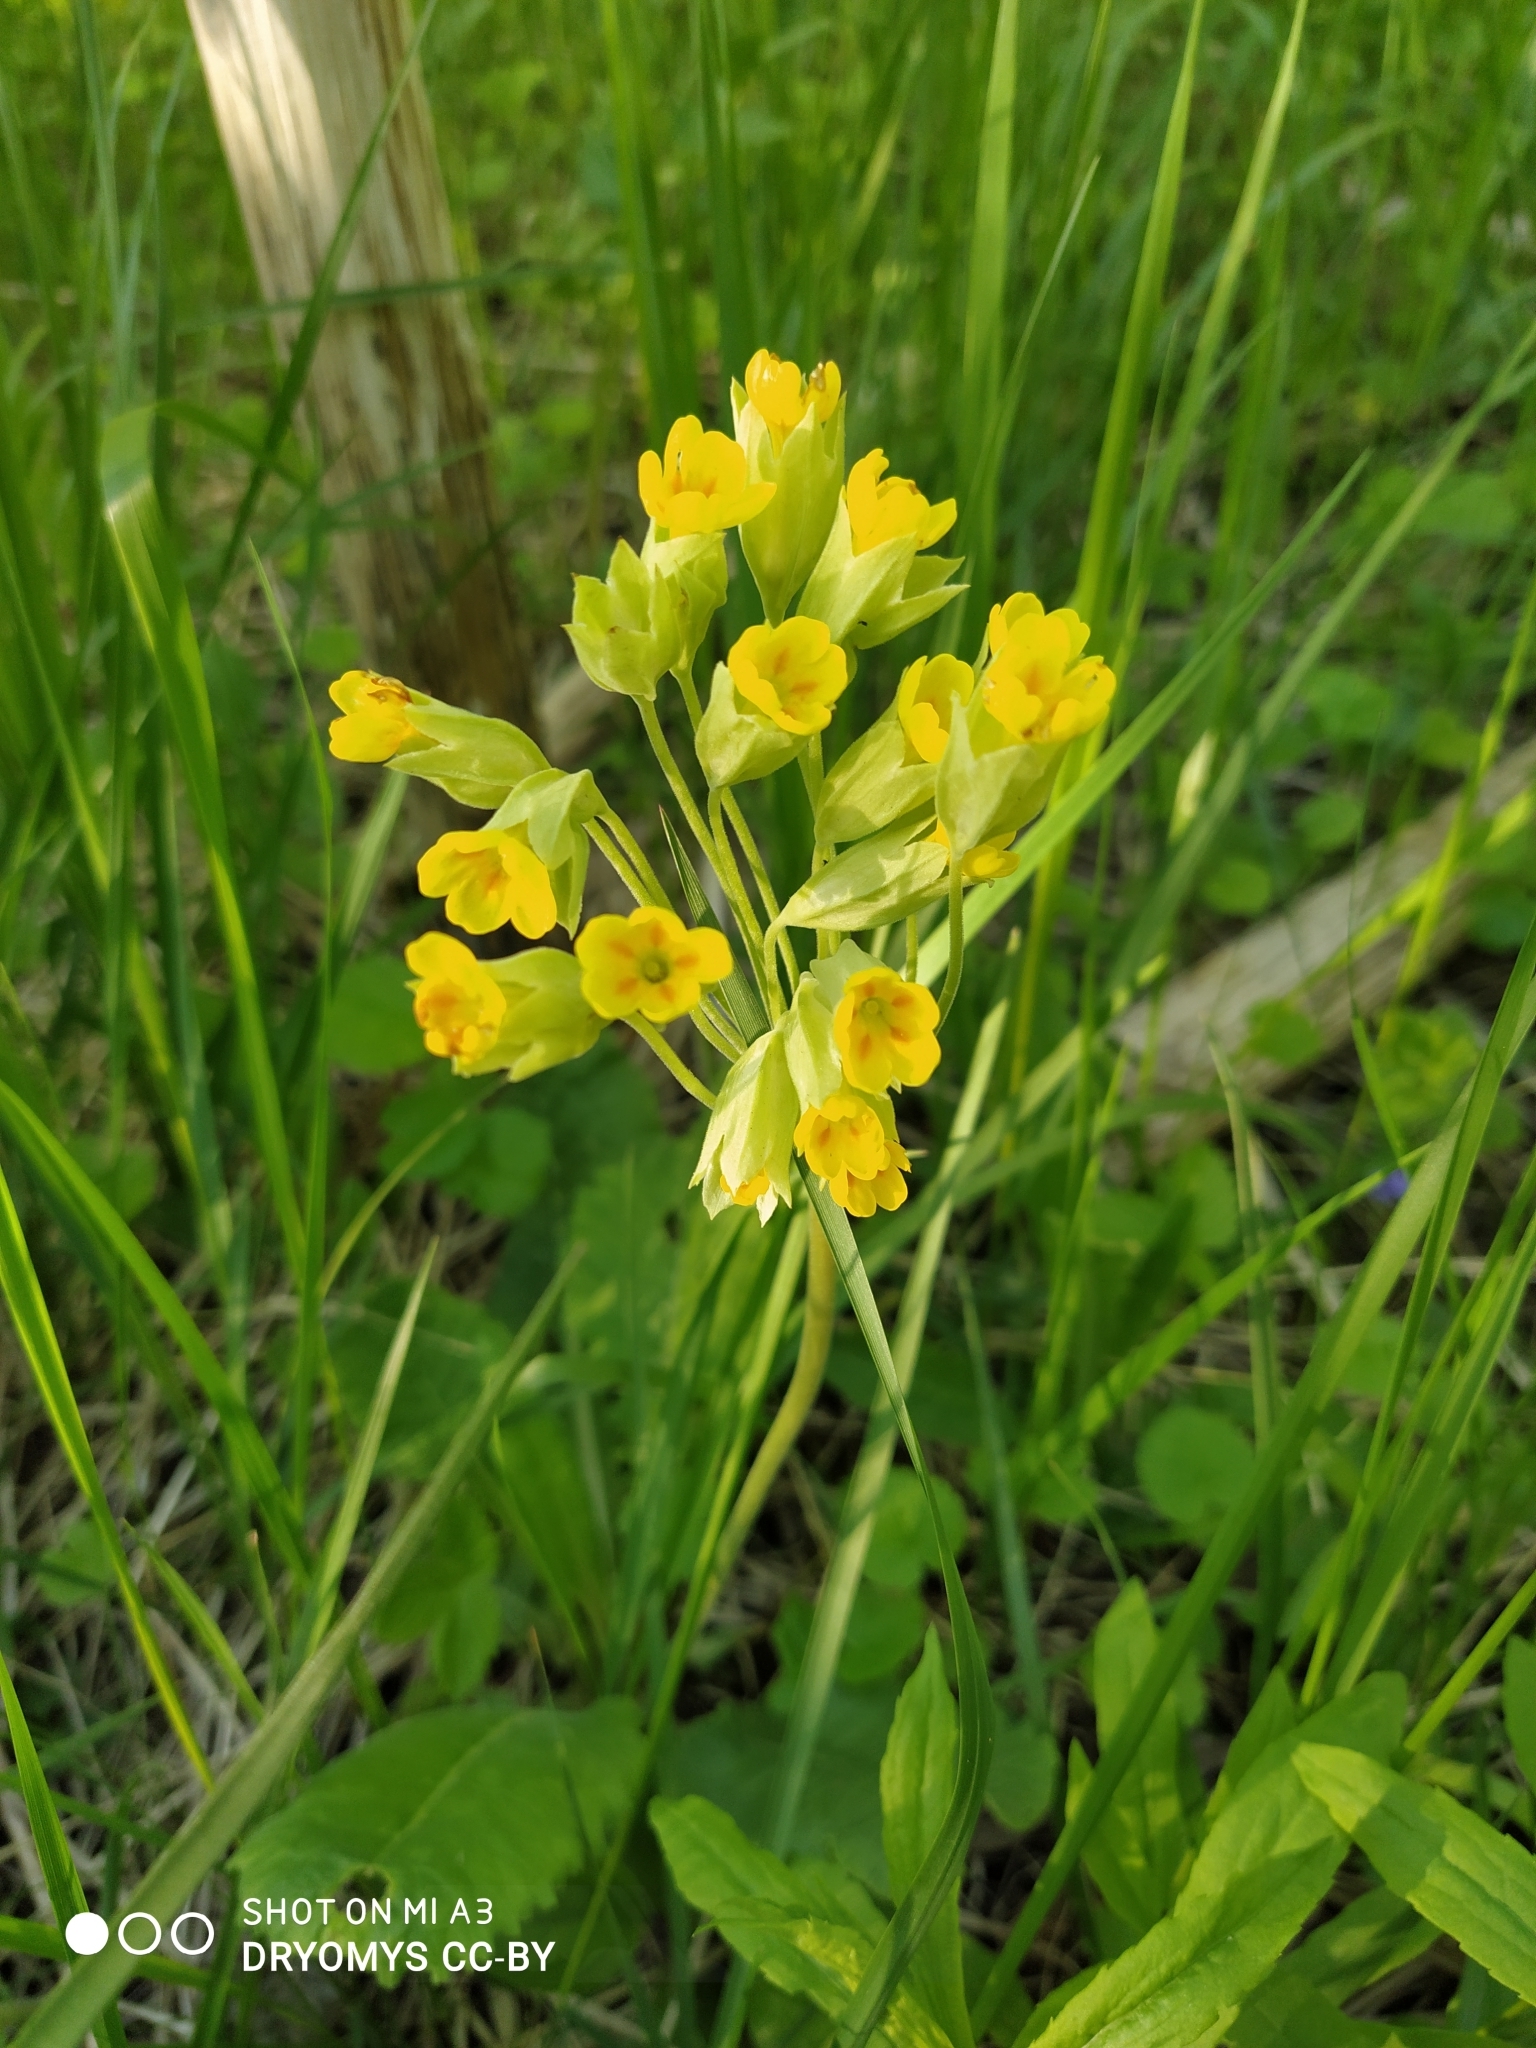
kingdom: Plantae
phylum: Tracheophyta
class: Magnoliopsida
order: Ericales
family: Primulaceae
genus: Primula
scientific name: Primula veris
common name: Cowslip
